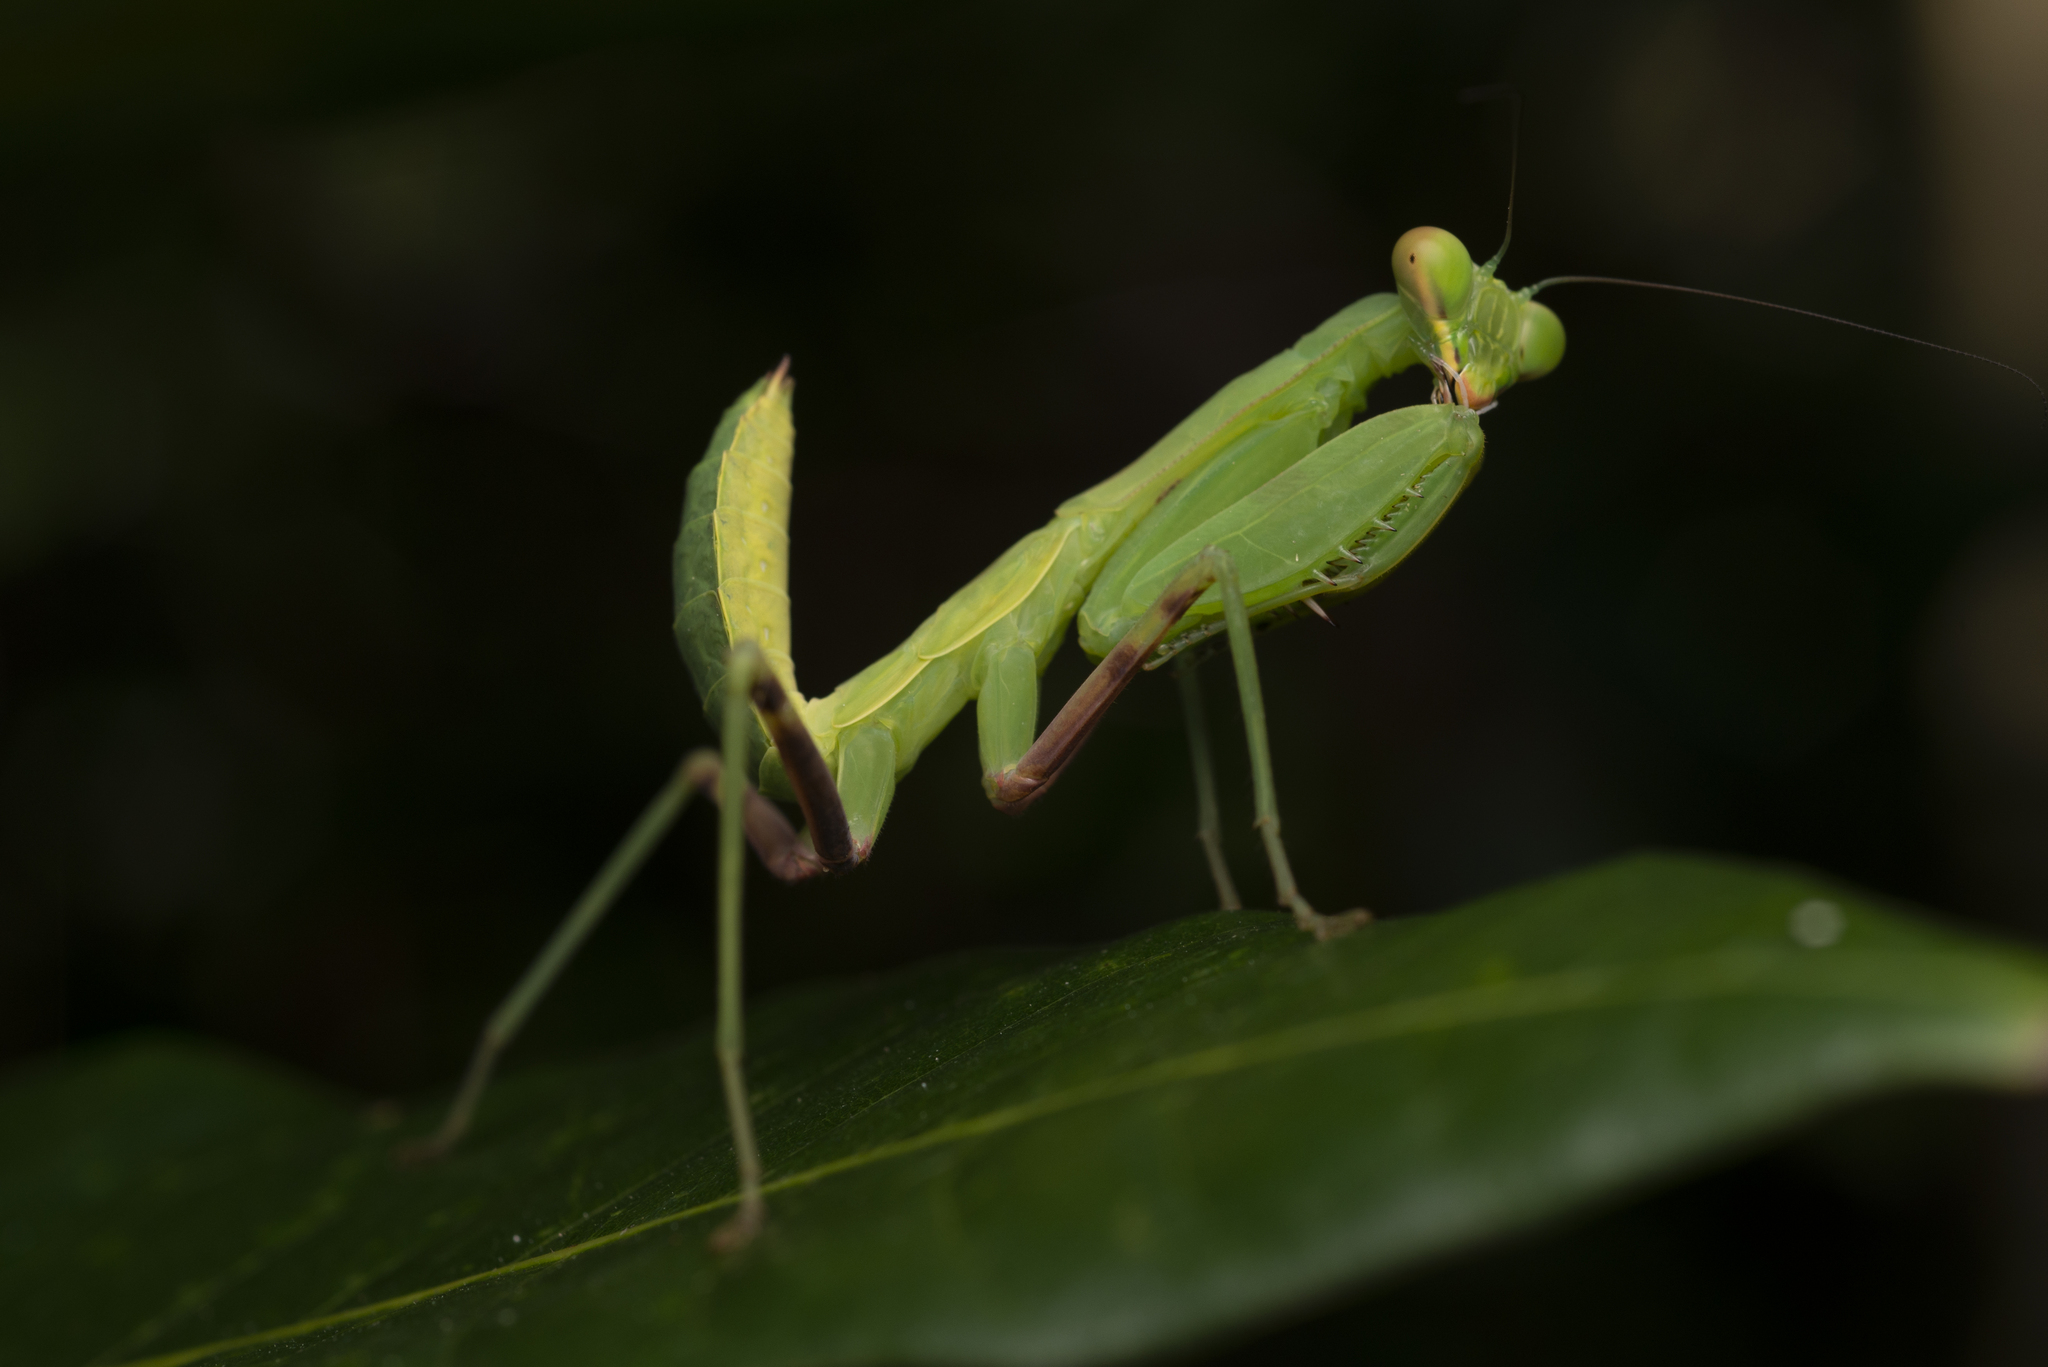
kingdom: Animalia
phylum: Arthropoda
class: Insecta
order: Mantodea
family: Mantidae
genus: Hierodula
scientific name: Hierodula patellifera
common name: Asian mantis
